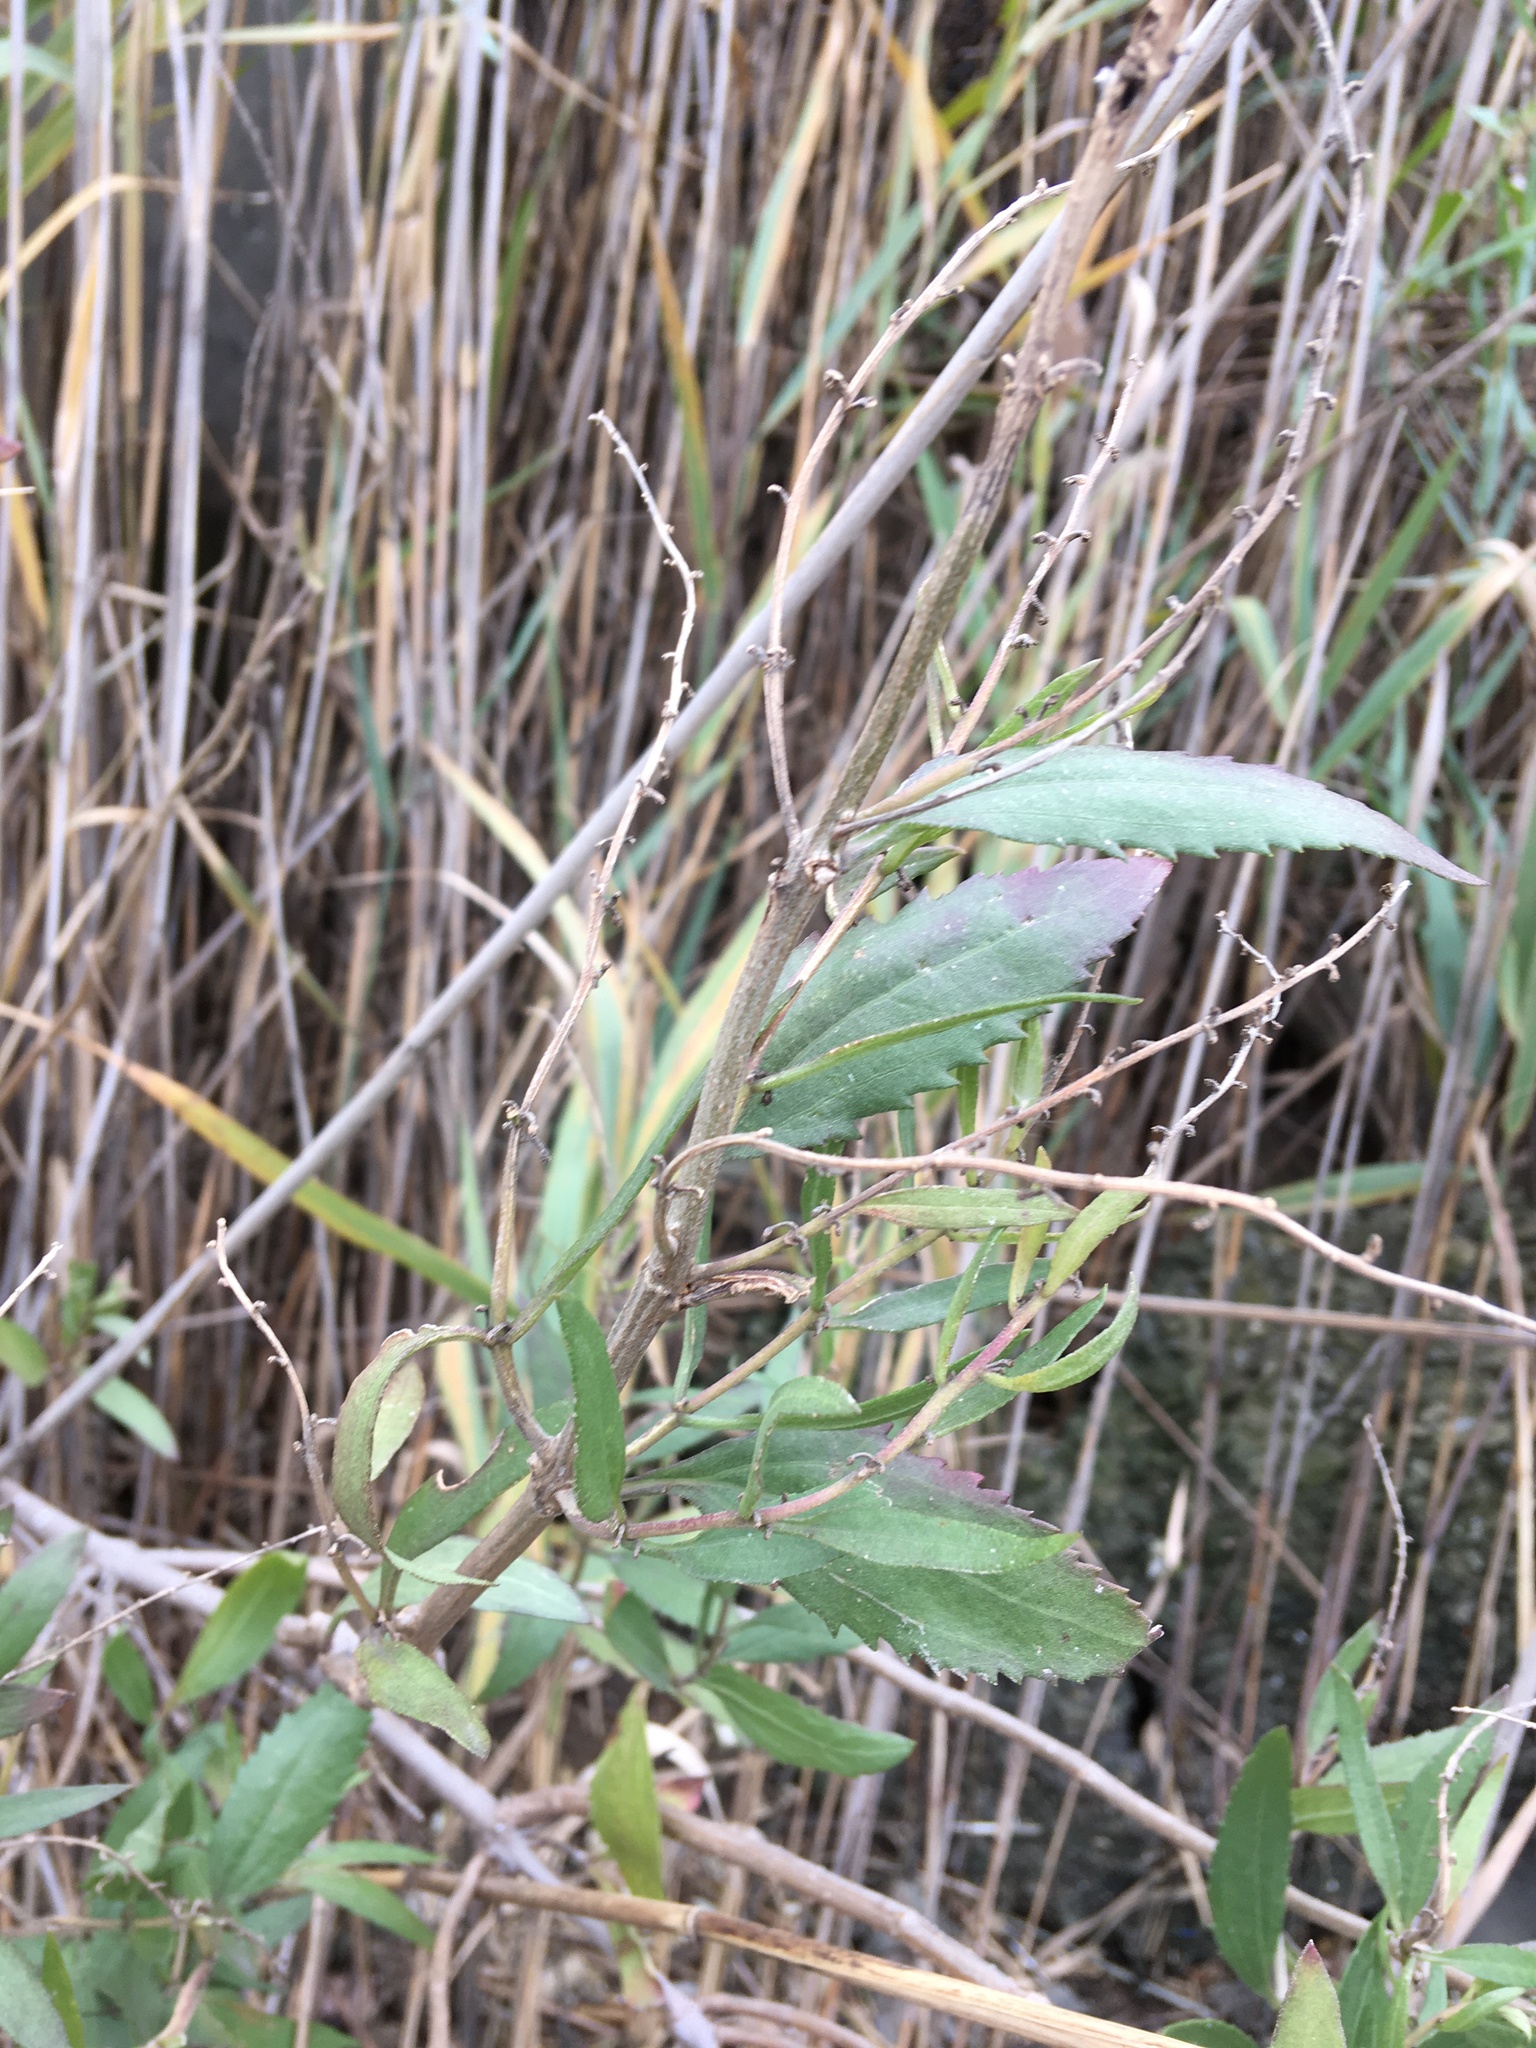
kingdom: Plantae
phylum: Tracheophyta
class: Magnoliopsida
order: Asterales
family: Asteraceae
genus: Iva
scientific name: Iva frutescens
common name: Big-leaved marsh-elder
